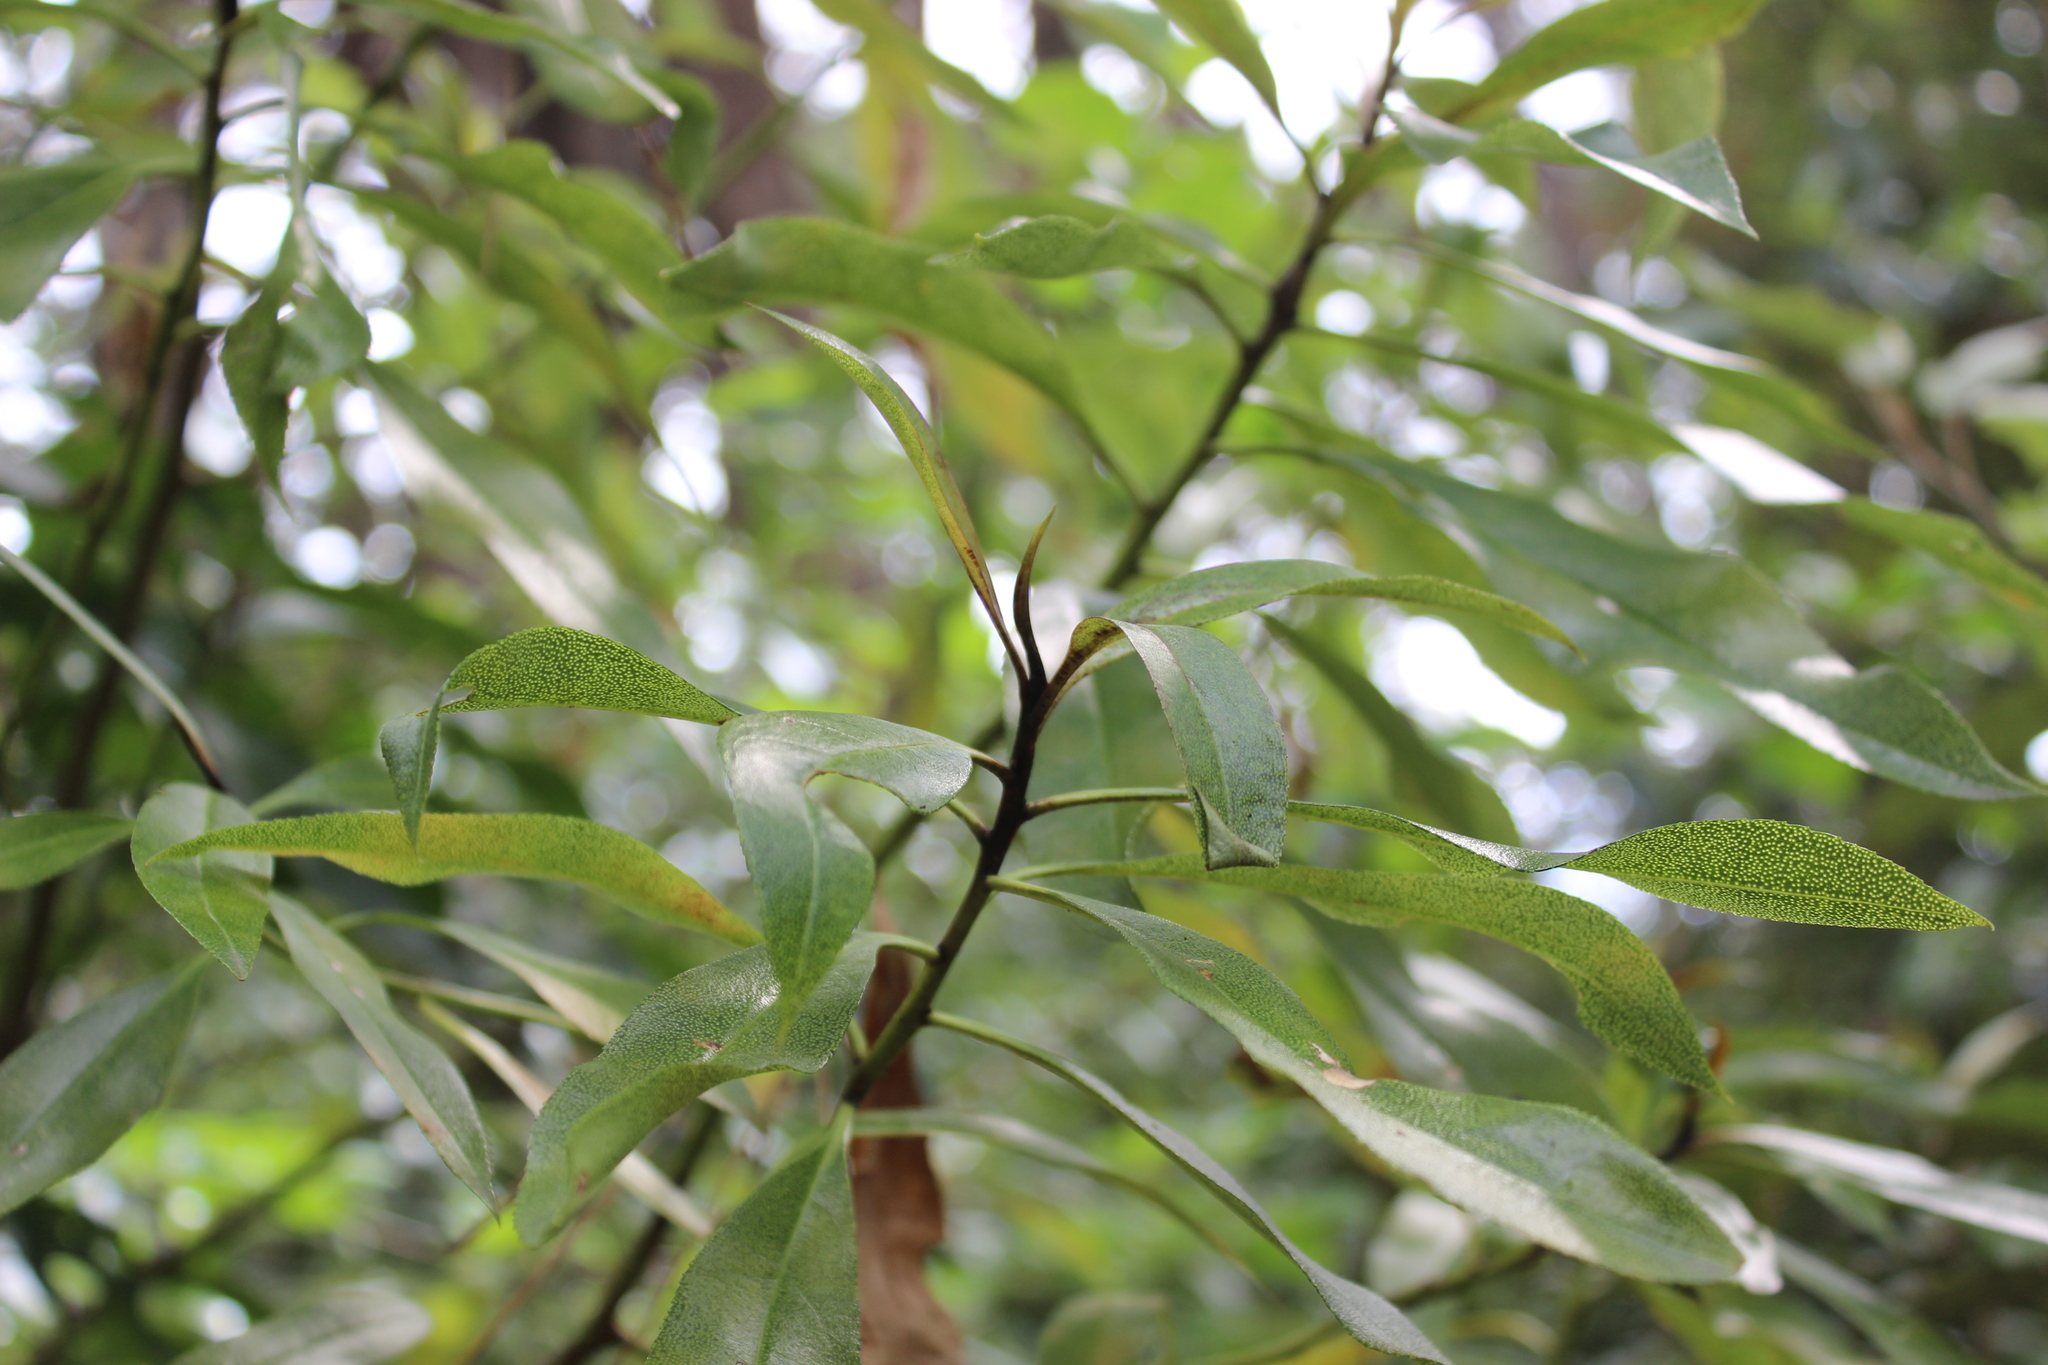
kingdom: Plantae
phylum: Tracheophyta
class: Magnoliopsida
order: Lamiales
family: Scrophulariaceae
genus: Myoporum
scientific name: Myoporum laetum
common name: Ngaio tree
